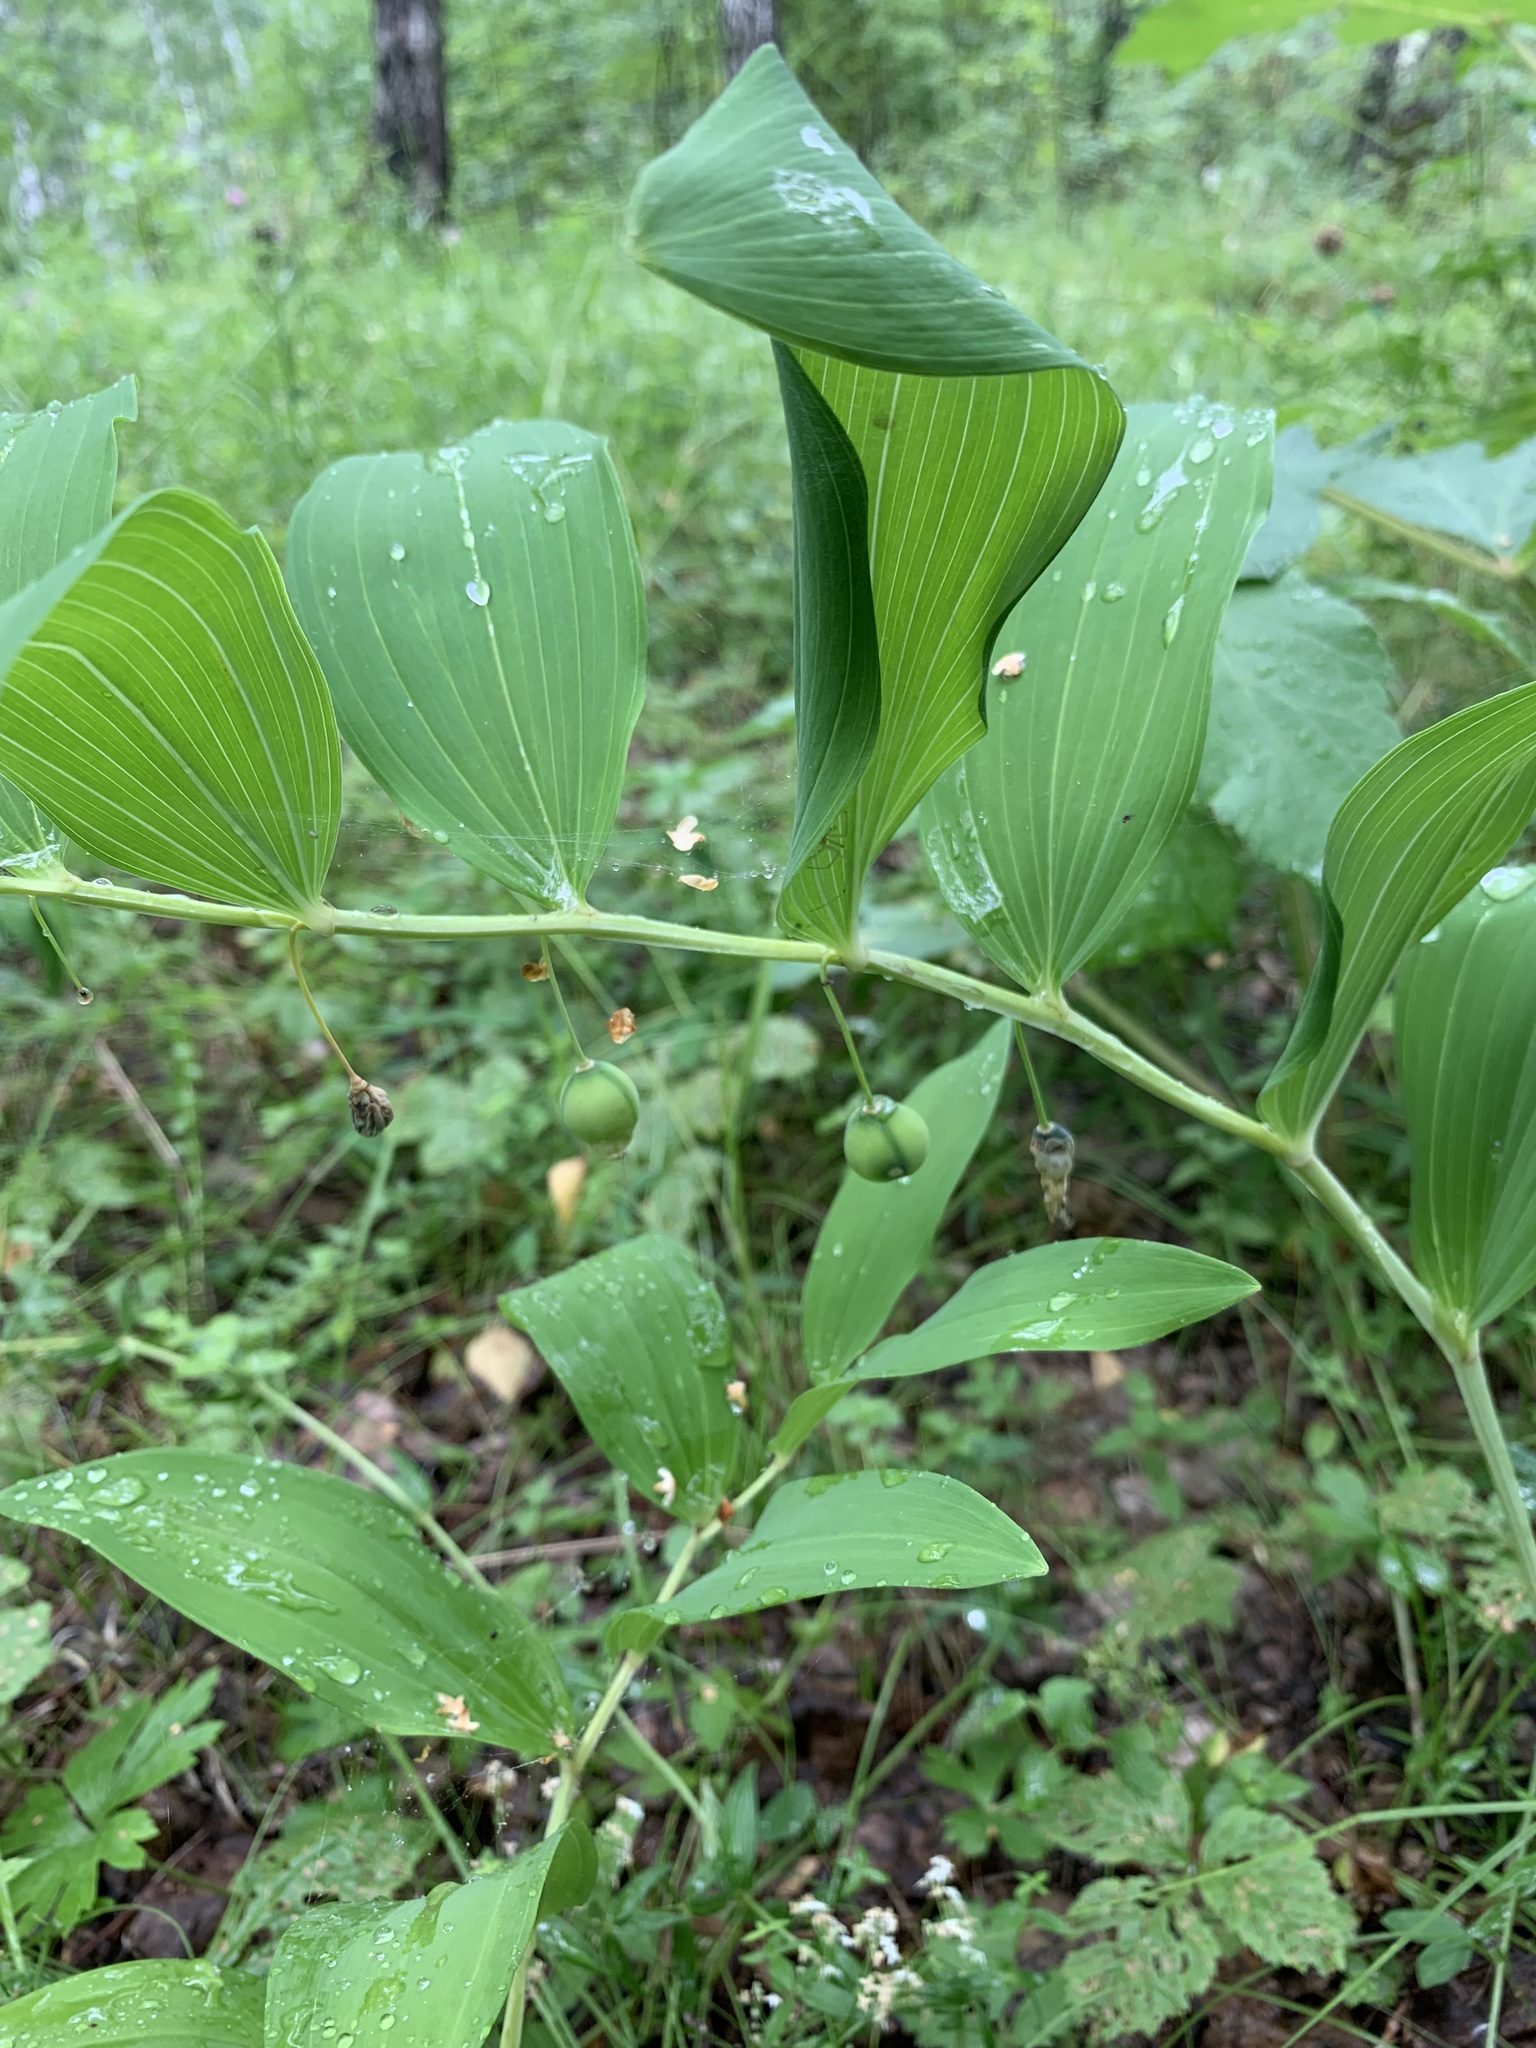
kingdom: Plantae
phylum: Tracheophyta
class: Liliopsida
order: Asparagales
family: Asparagaceae
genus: Polygonatum
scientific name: Polygonatum odoratum
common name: Angular solomon's-seal
